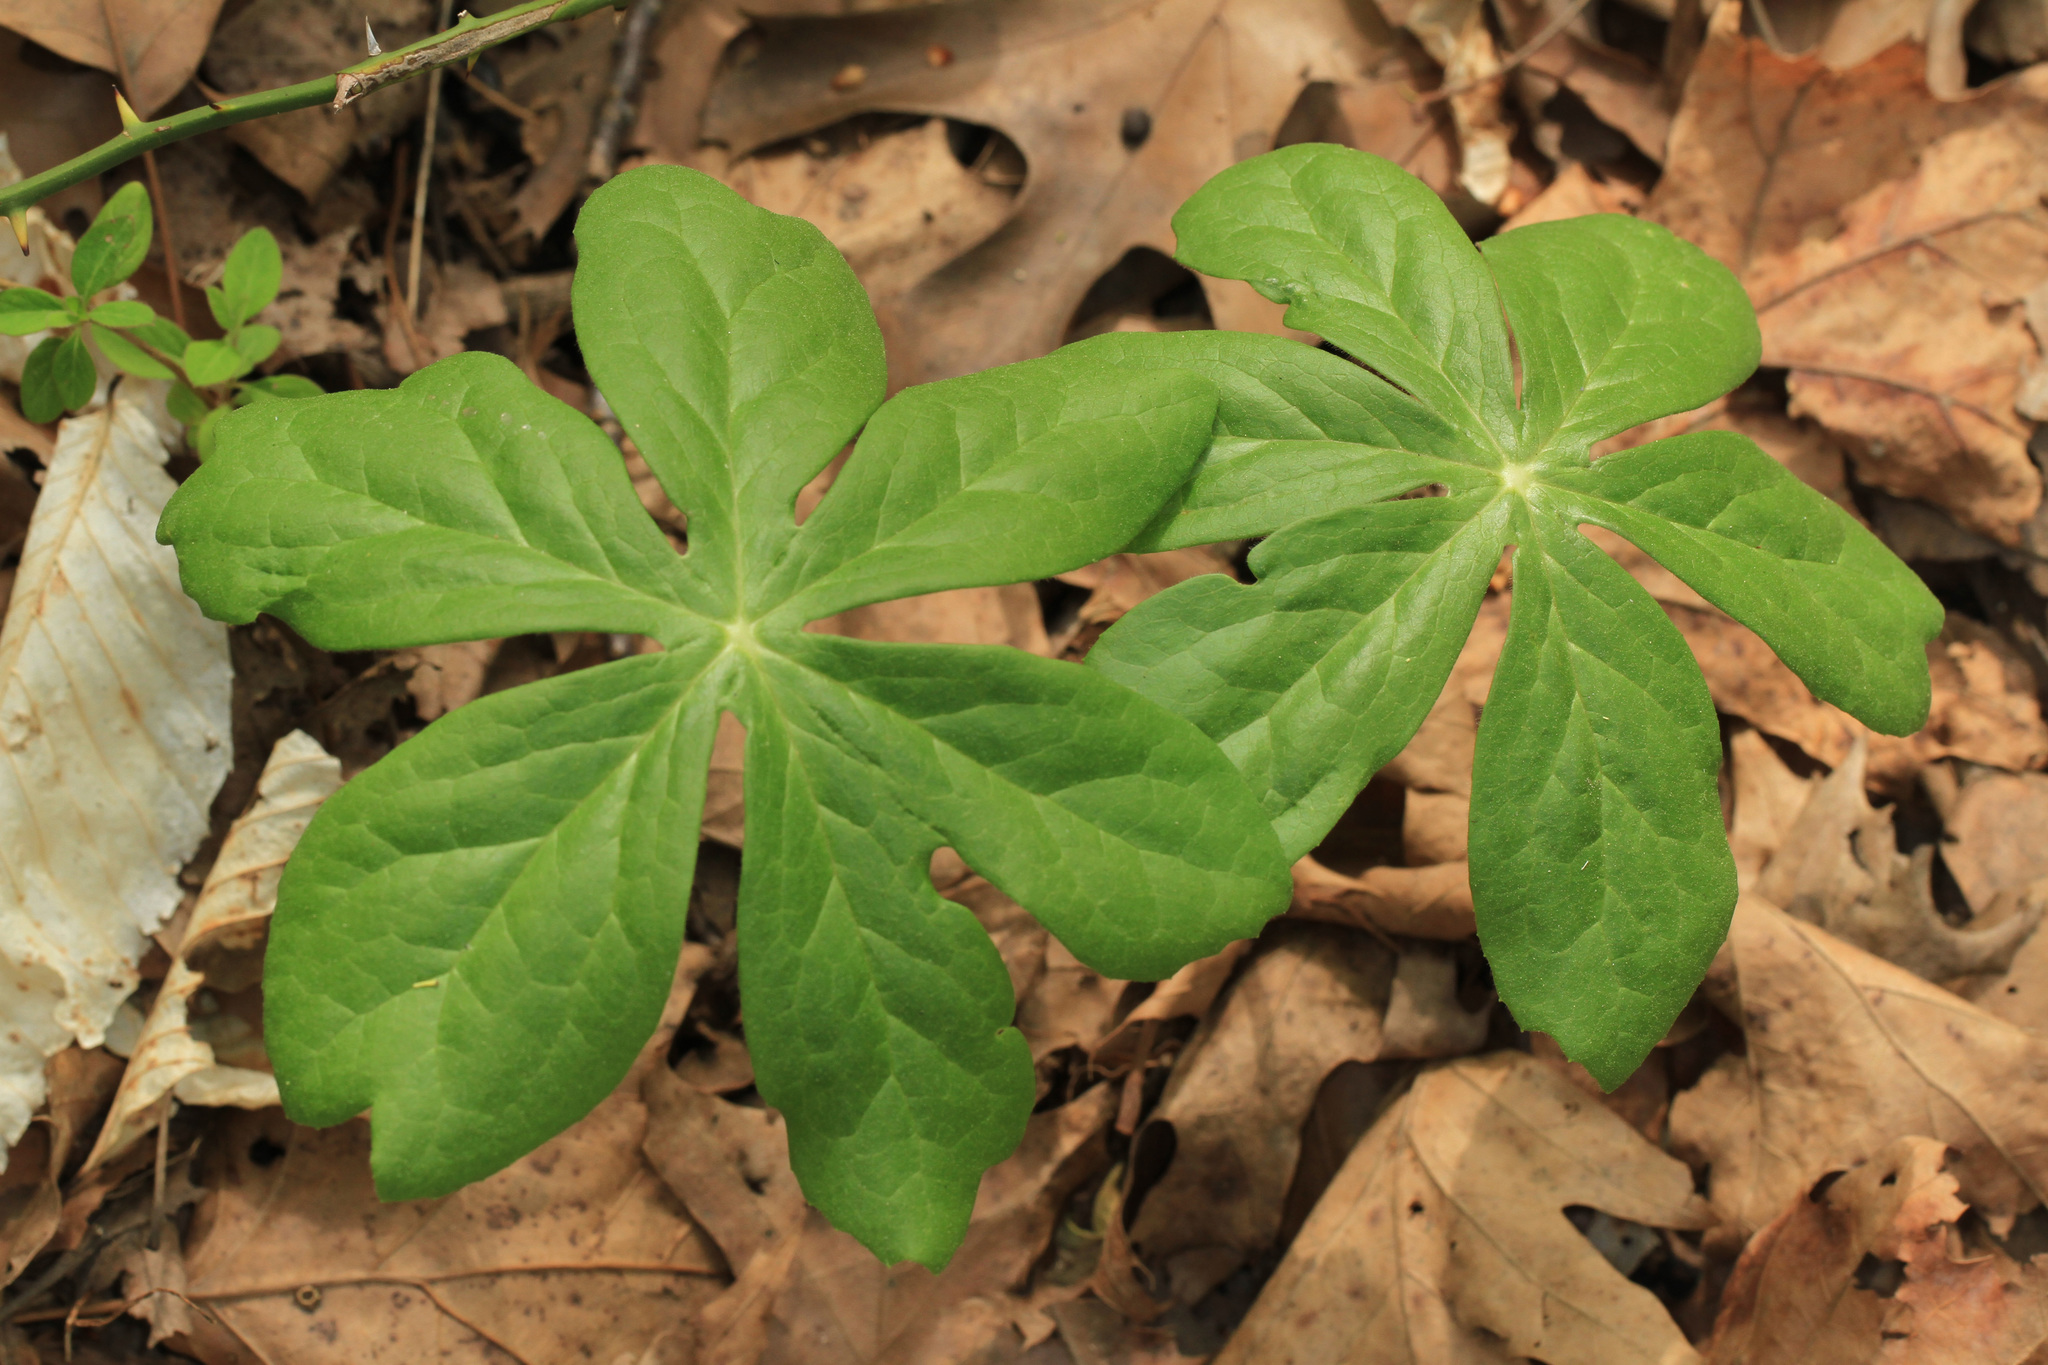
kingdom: Plantae
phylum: Tracheophyta
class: Magnoliopsida
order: Ranunculales
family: Berberidaceae
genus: Podophyllum
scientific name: Podophyllum peltatum
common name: Wild mandrake
